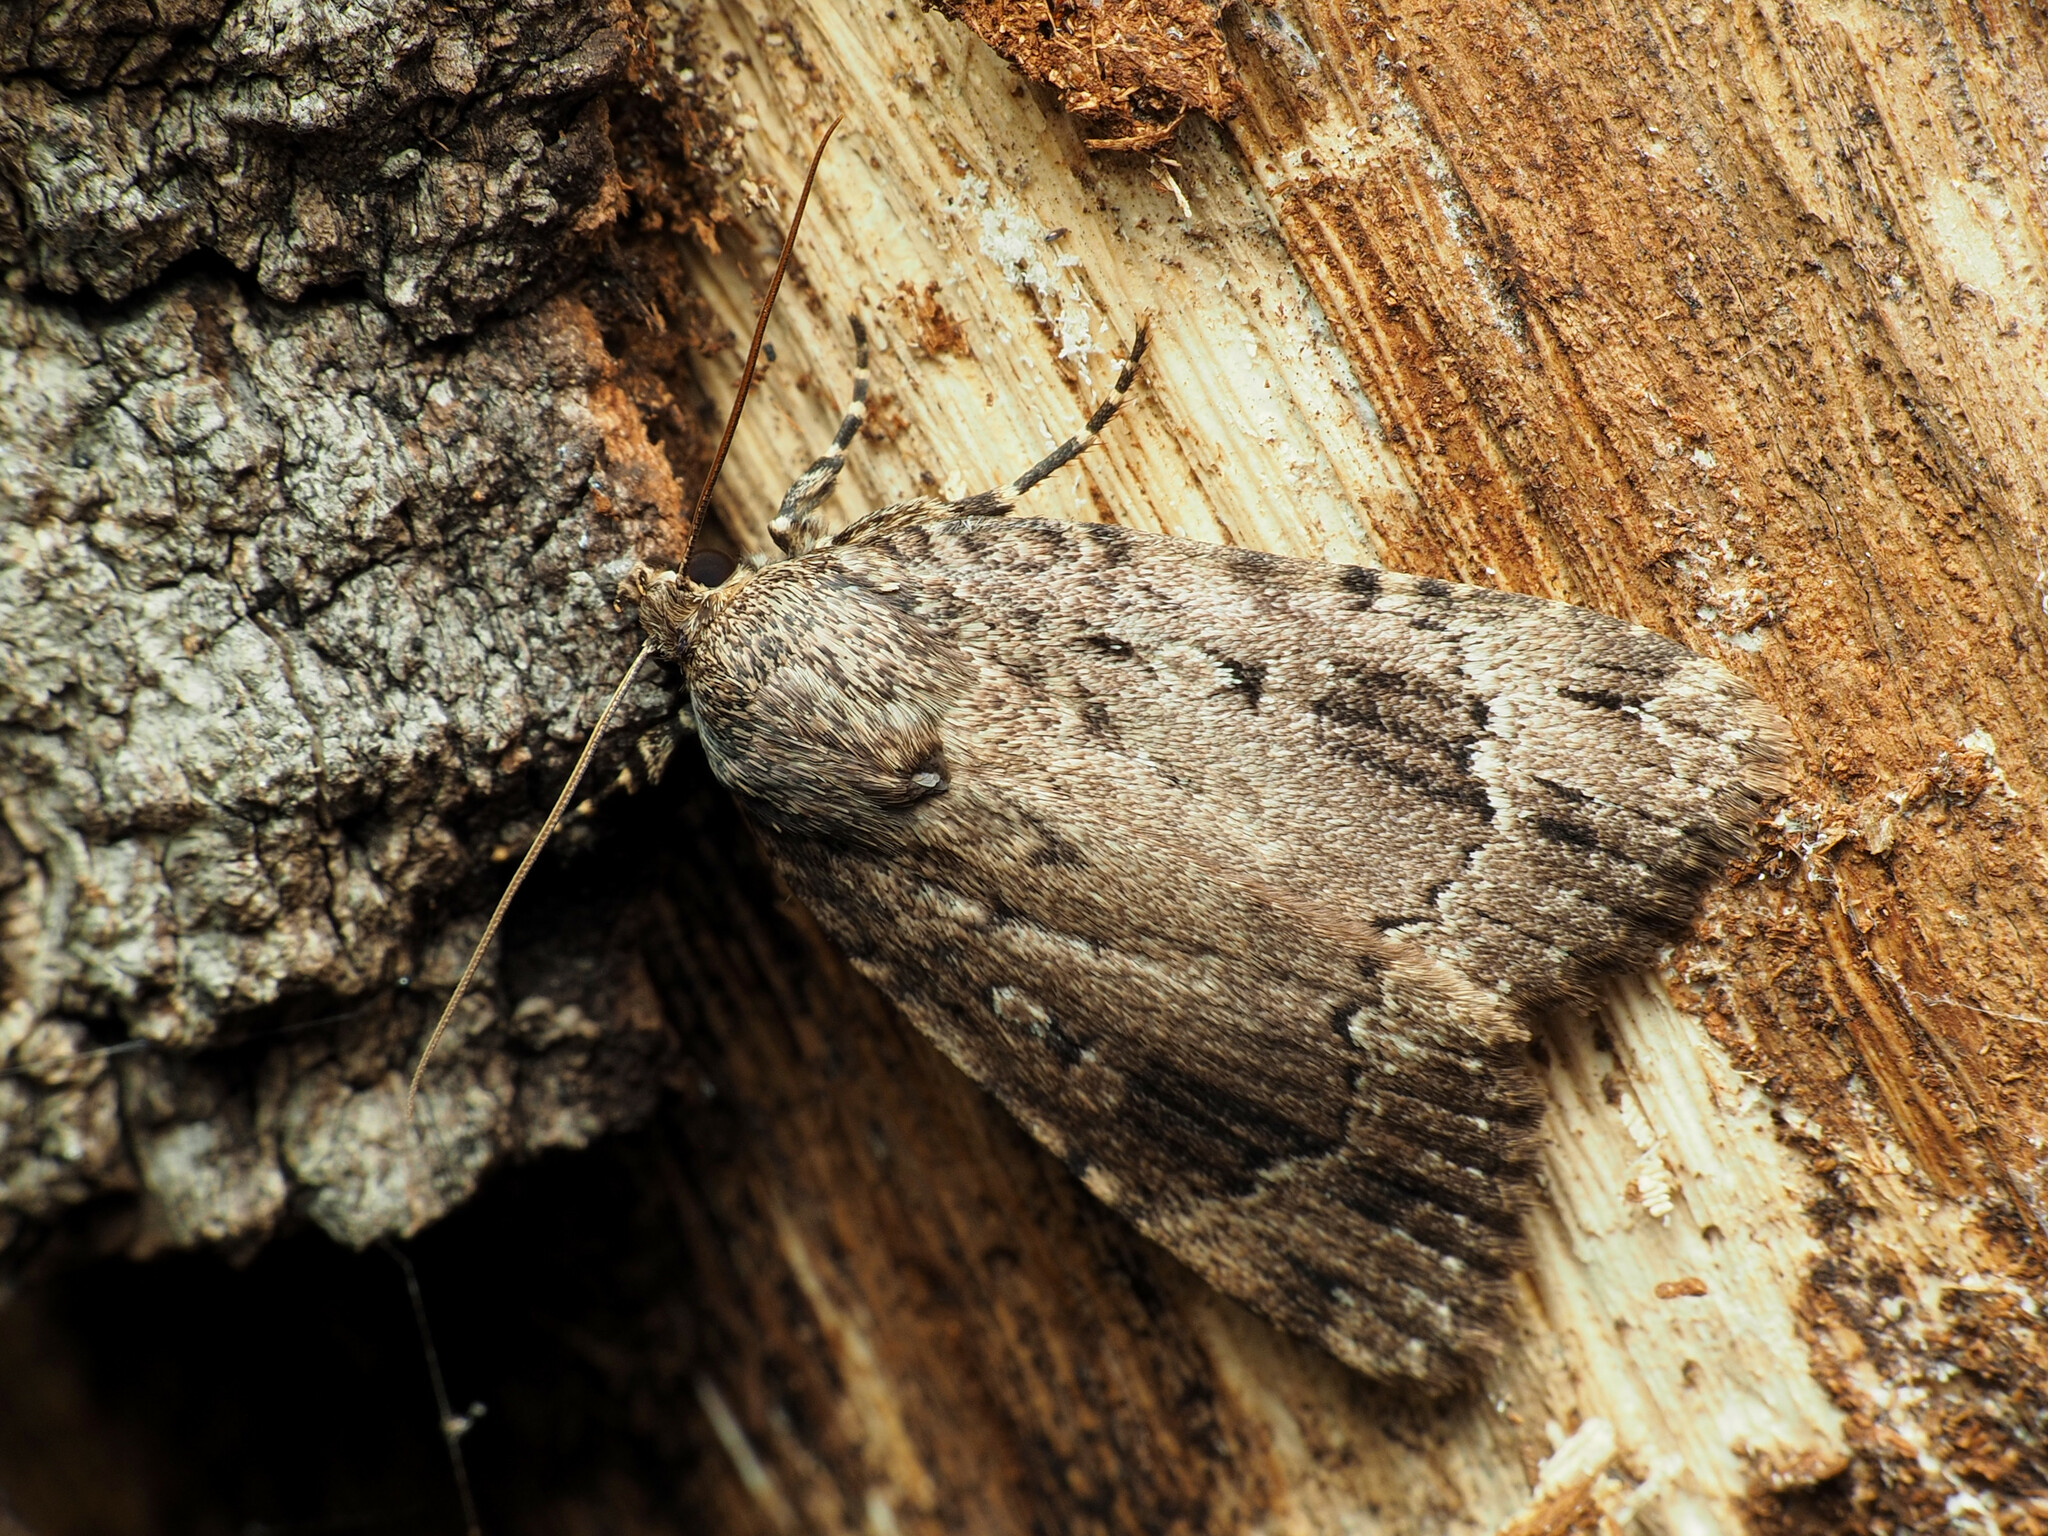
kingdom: Animalia
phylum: Arthropoda
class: Insecta
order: Lepidoptera
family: Noctuidae
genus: Amphipyra
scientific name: Amphipyra pyramidoides
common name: American copper underwing
